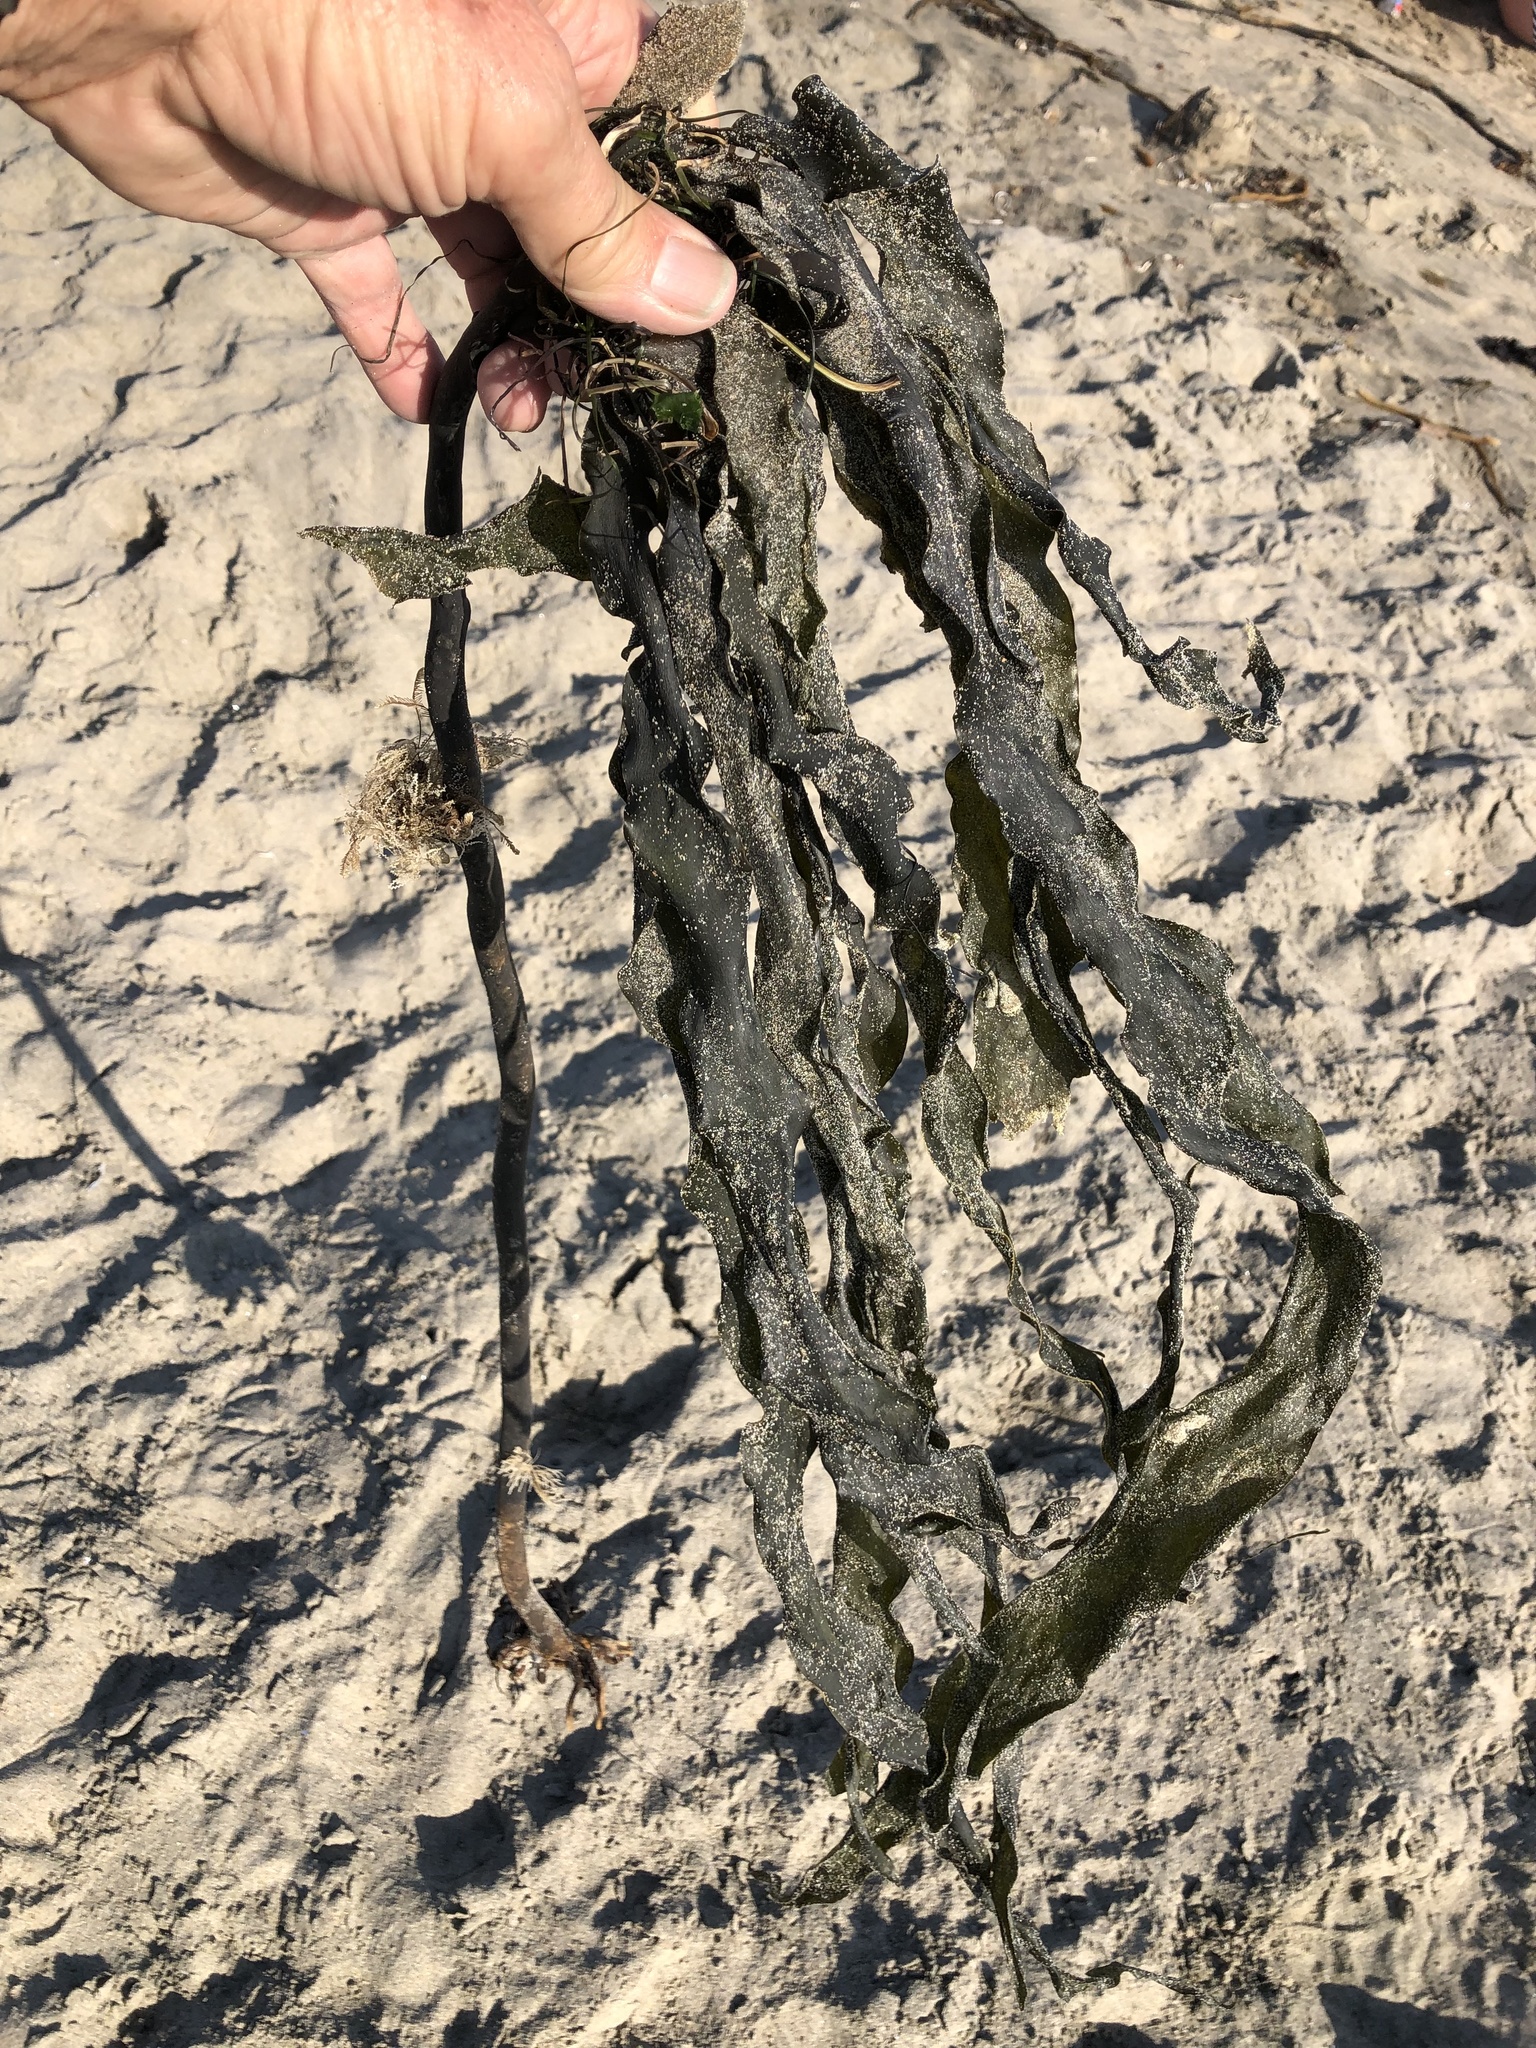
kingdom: Chromista
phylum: Ochrophyta
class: Phaeophyceae
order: Laminariales
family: Alariaceae
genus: Pterygophora
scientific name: Pterygophora californica
